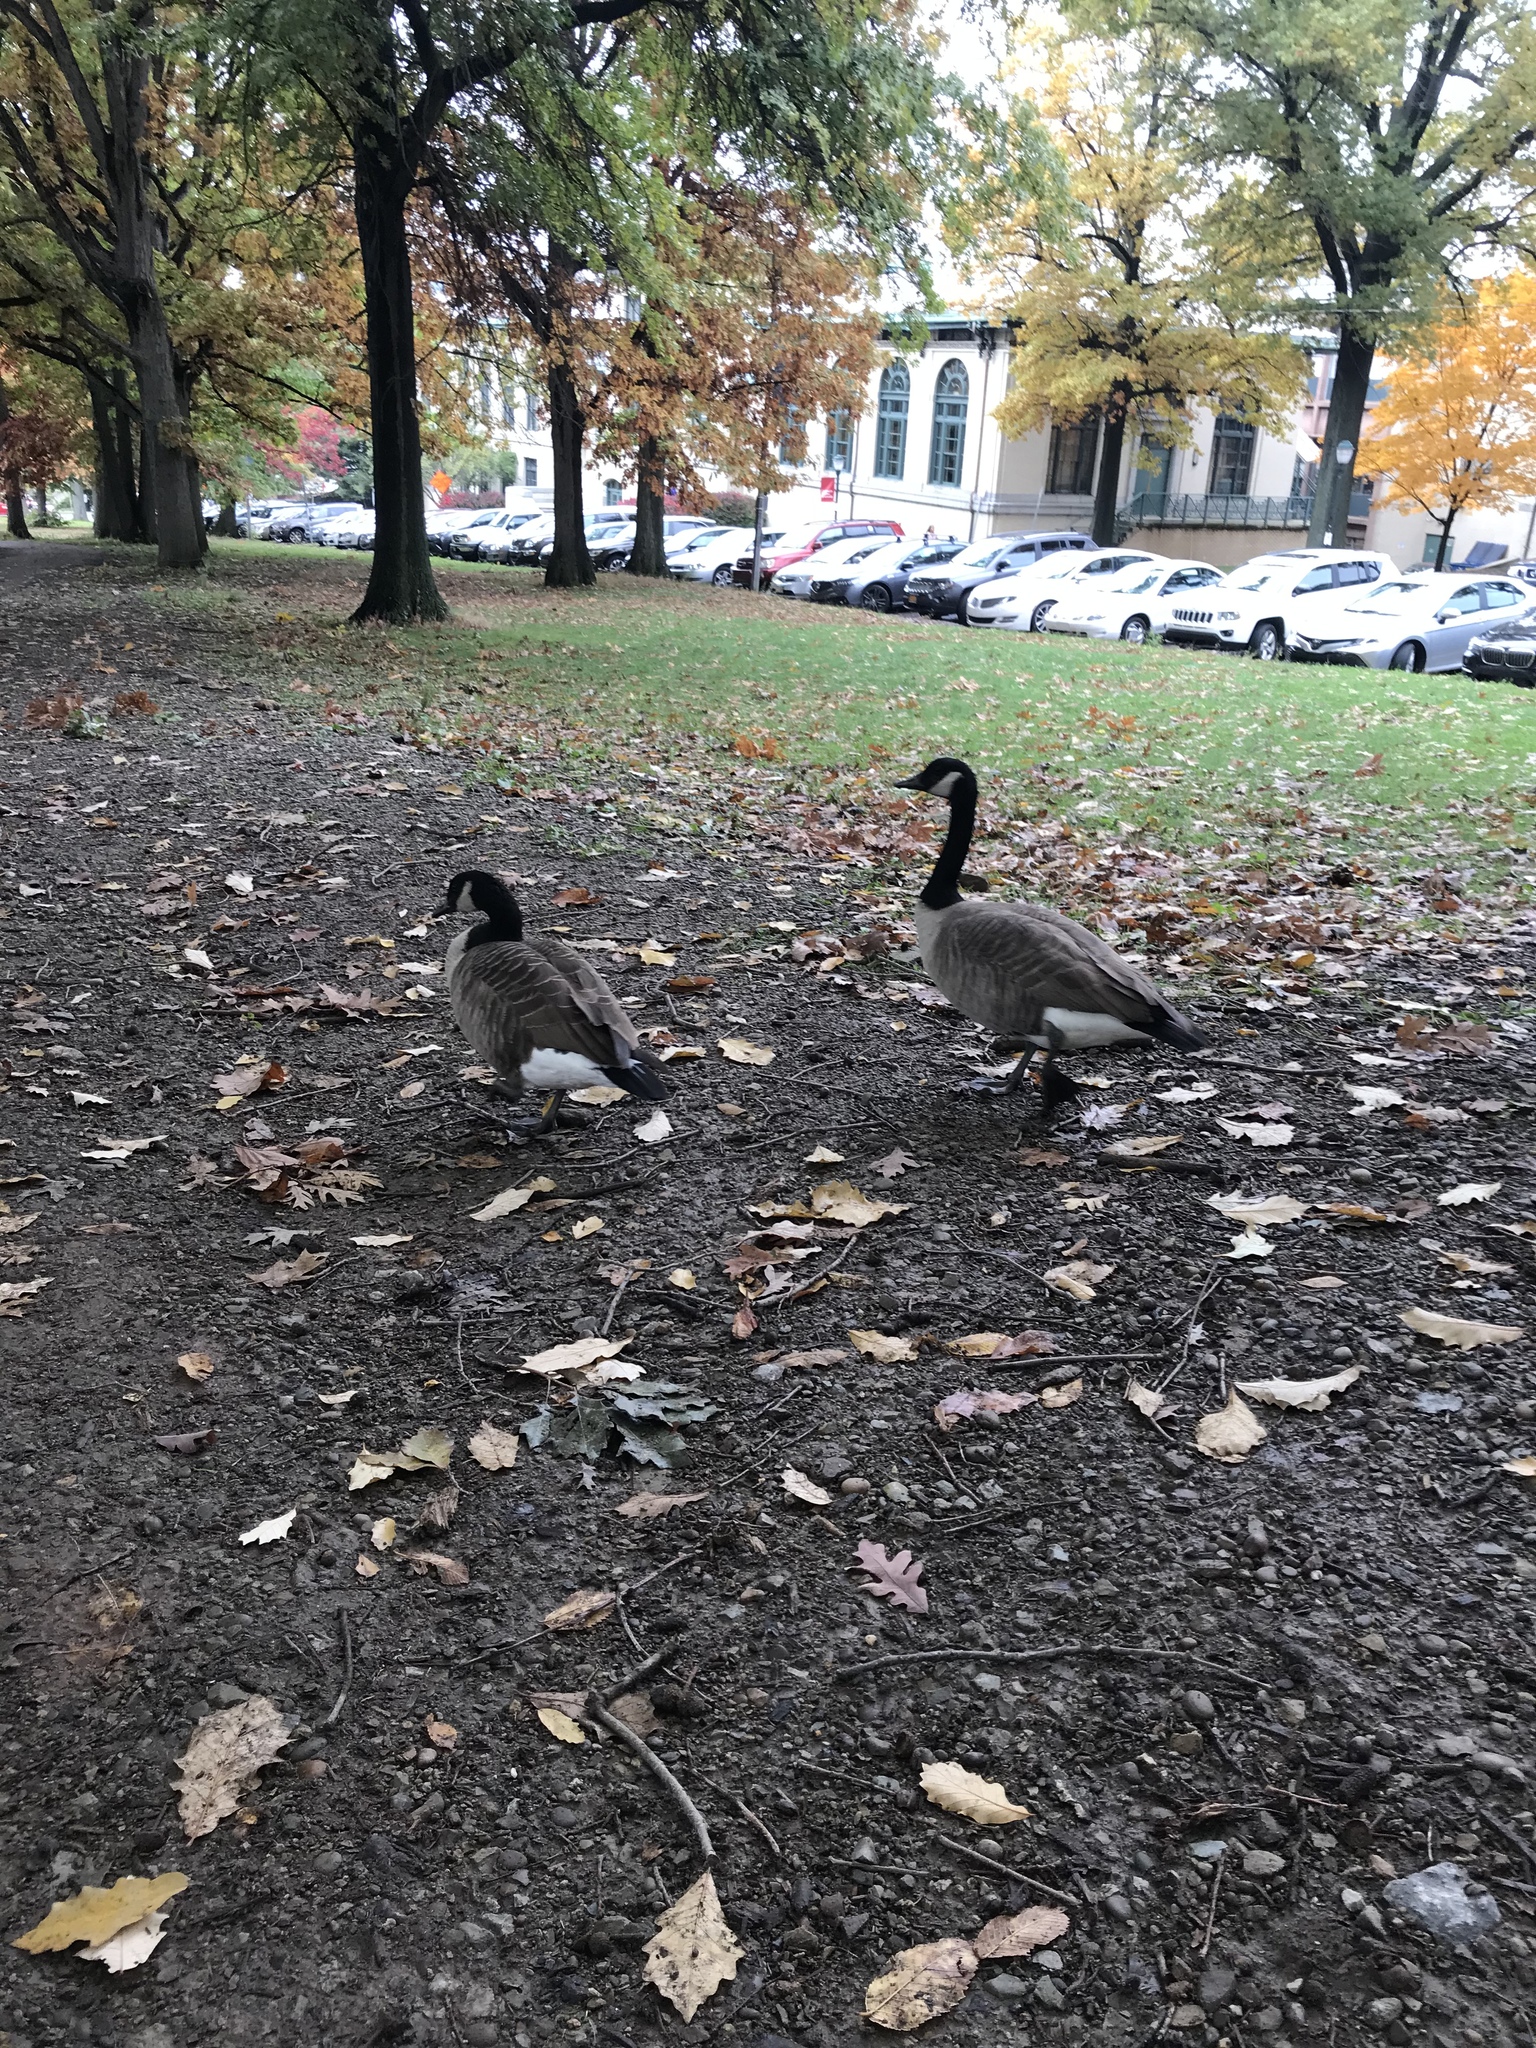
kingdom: Animalia
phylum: Chordata
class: Aves
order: Anseriformes
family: Anatidae
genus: Branta
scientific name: Branta canadensis
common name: Canada goose
